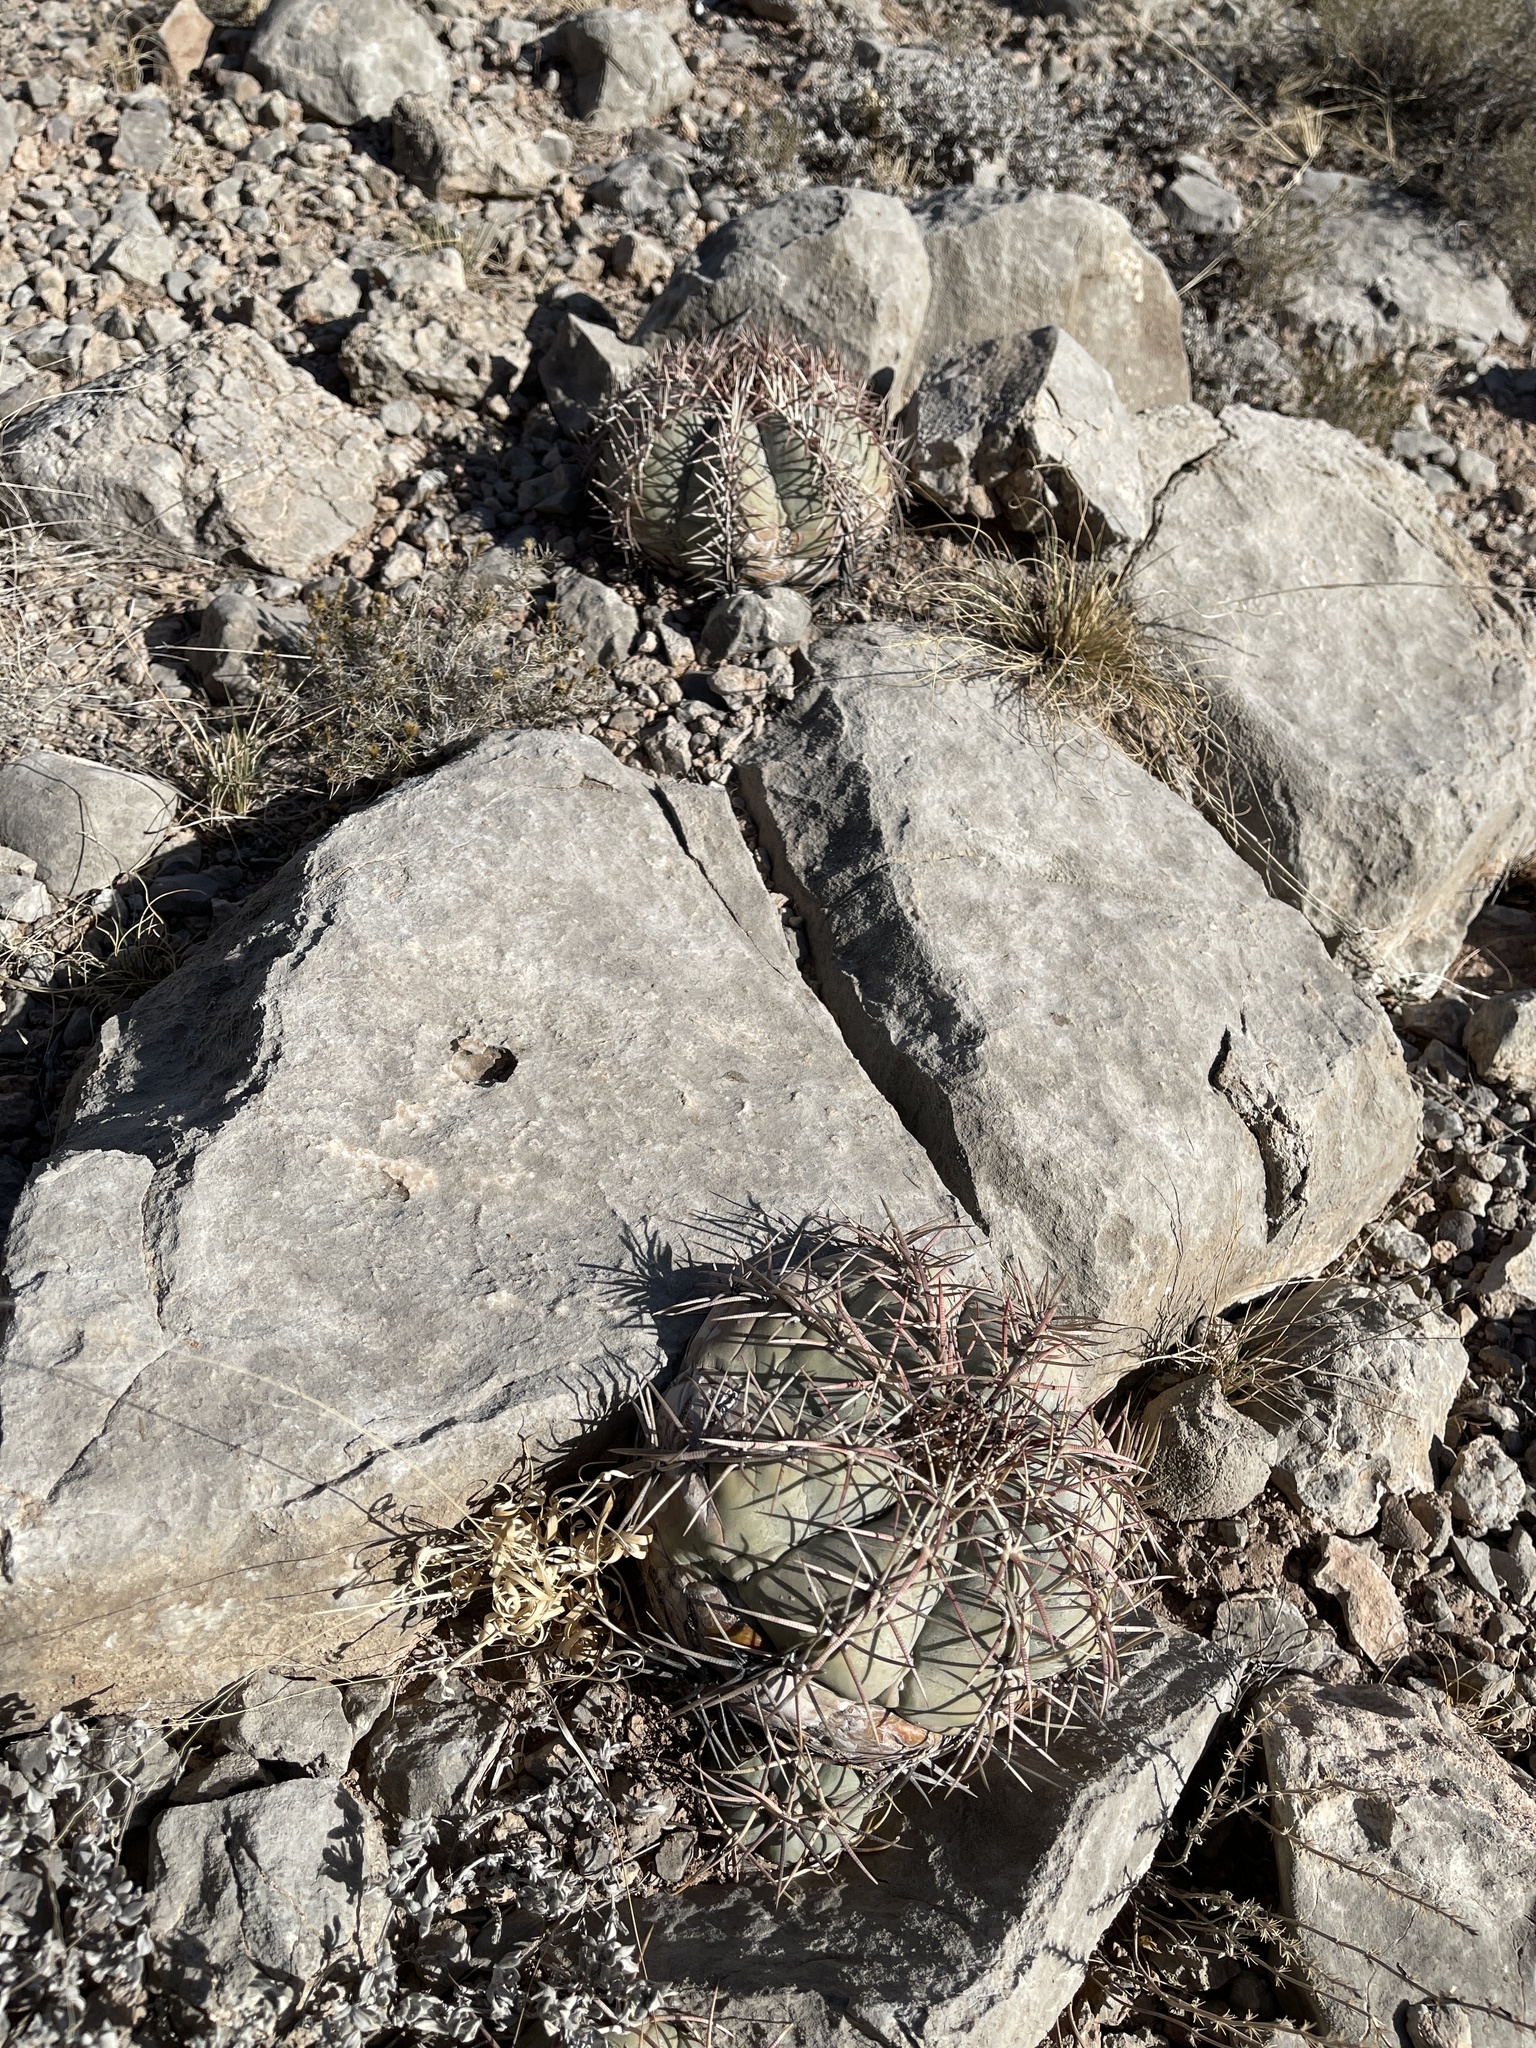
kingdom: Plantae
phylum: Tracheophyta
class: Magnoliopsida
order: Caryophyllales
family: Cactaceae
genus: Echinocactus
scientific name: Echinocactus horizonthalonius
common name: Devilshead
